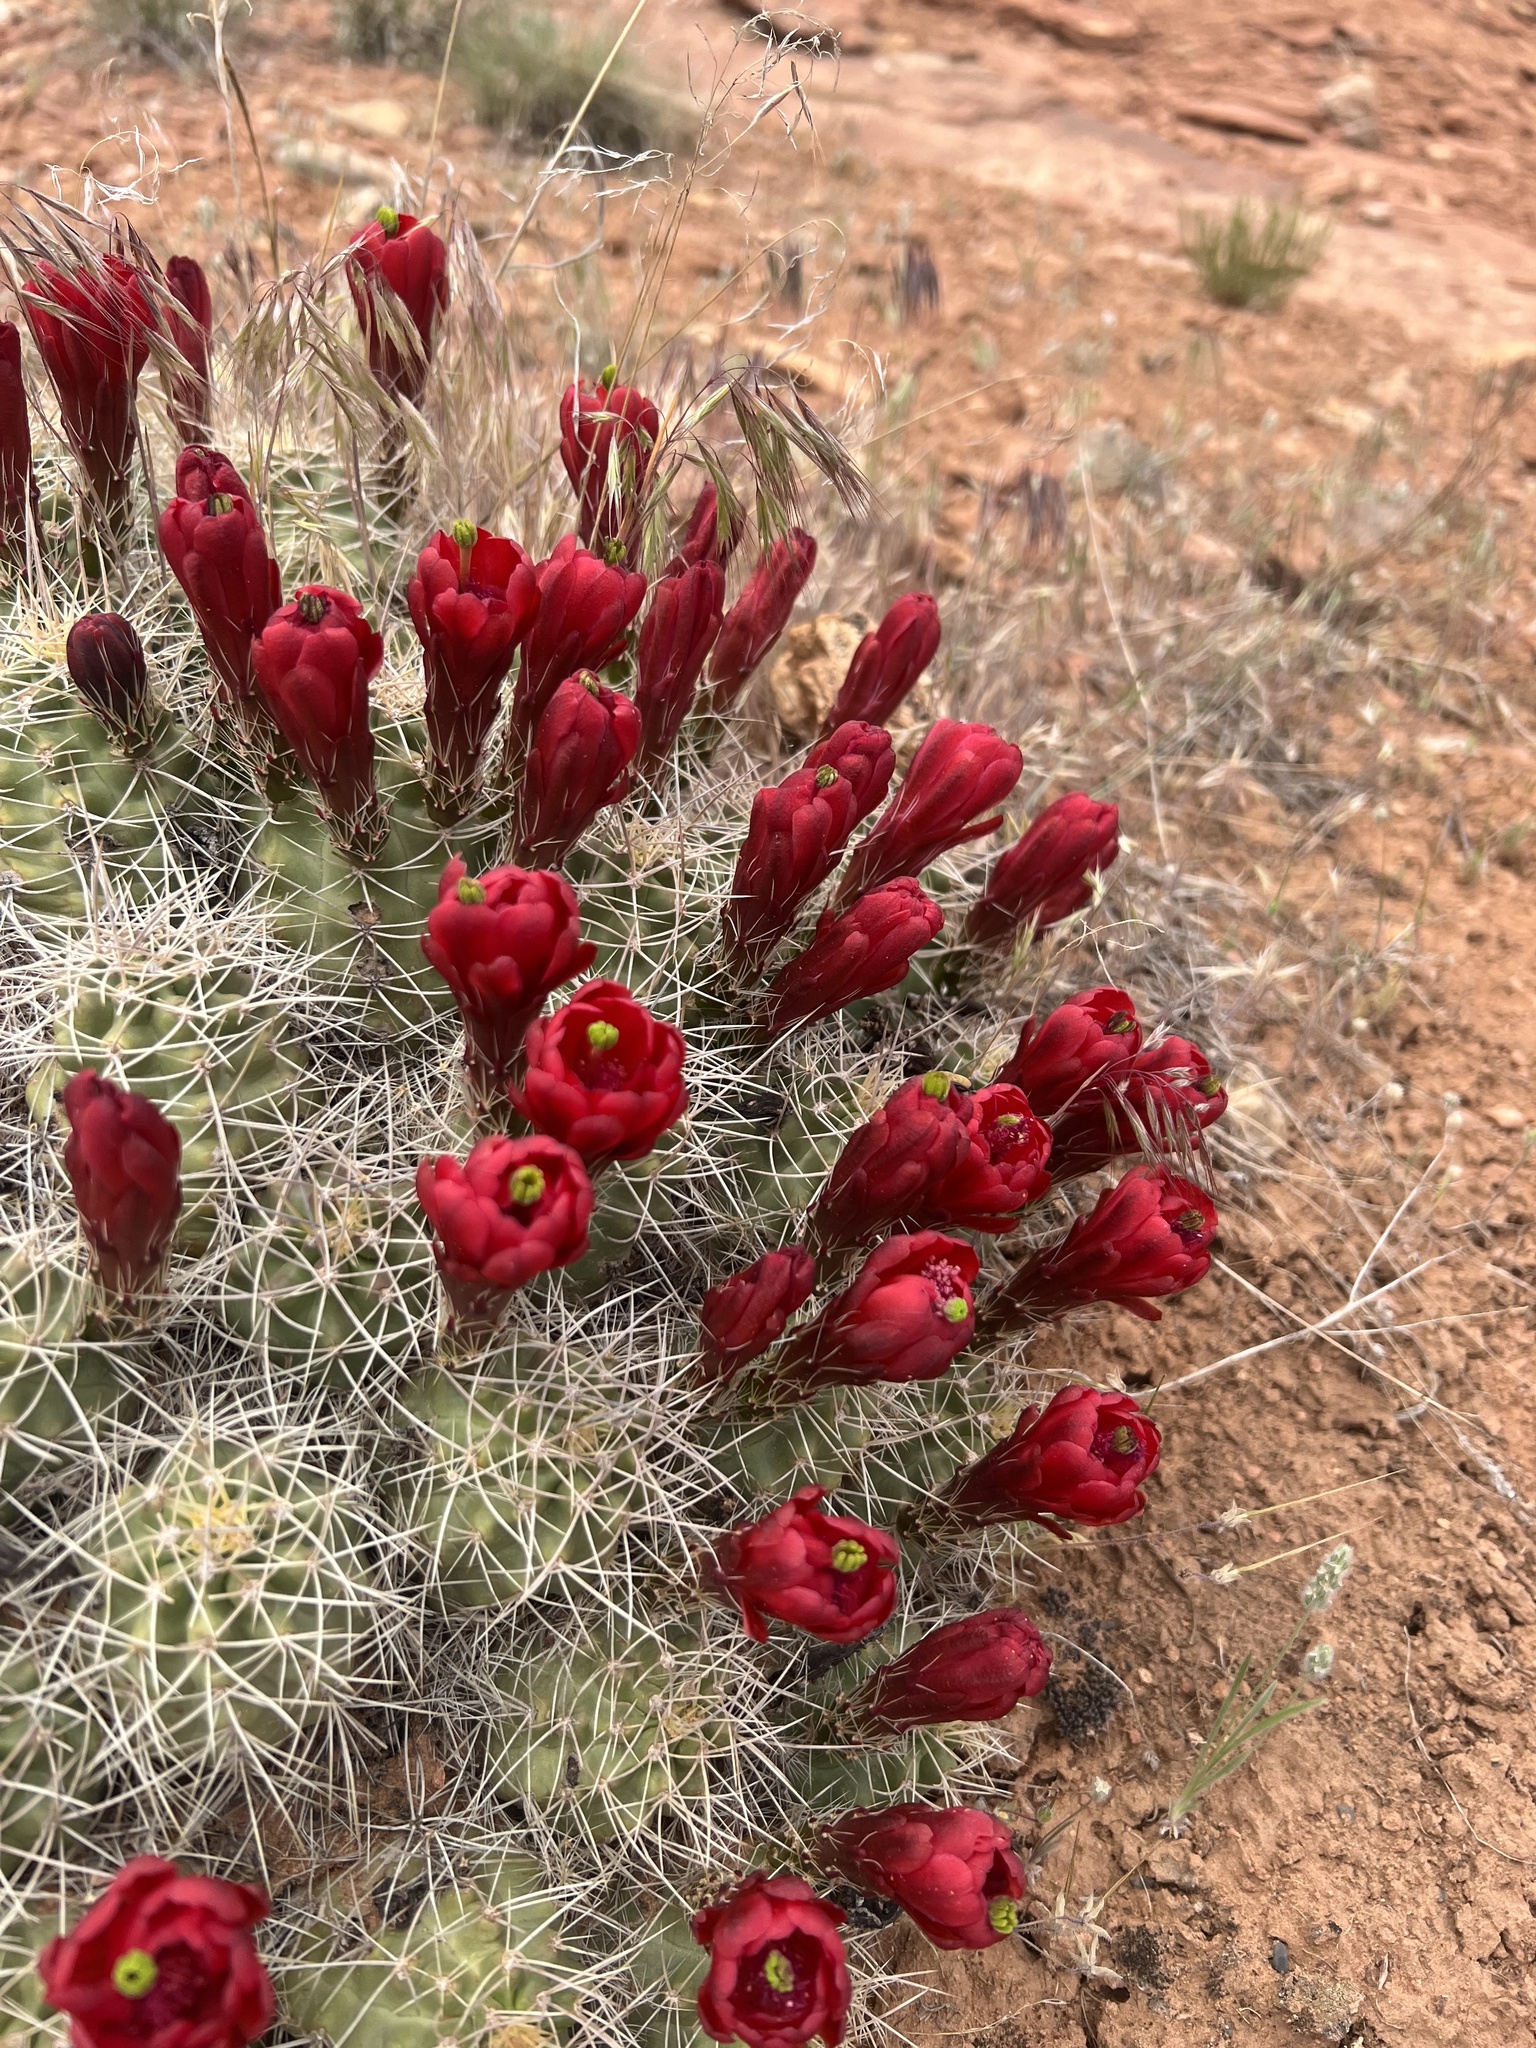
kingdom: Plantae
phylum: Tracheophyta
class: Magnoliopsida
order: Caryophyllales
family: Cactaceae
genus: Echinocereus
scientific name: Echinocereus triglochidiatus
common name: Claretcup hedgehog
